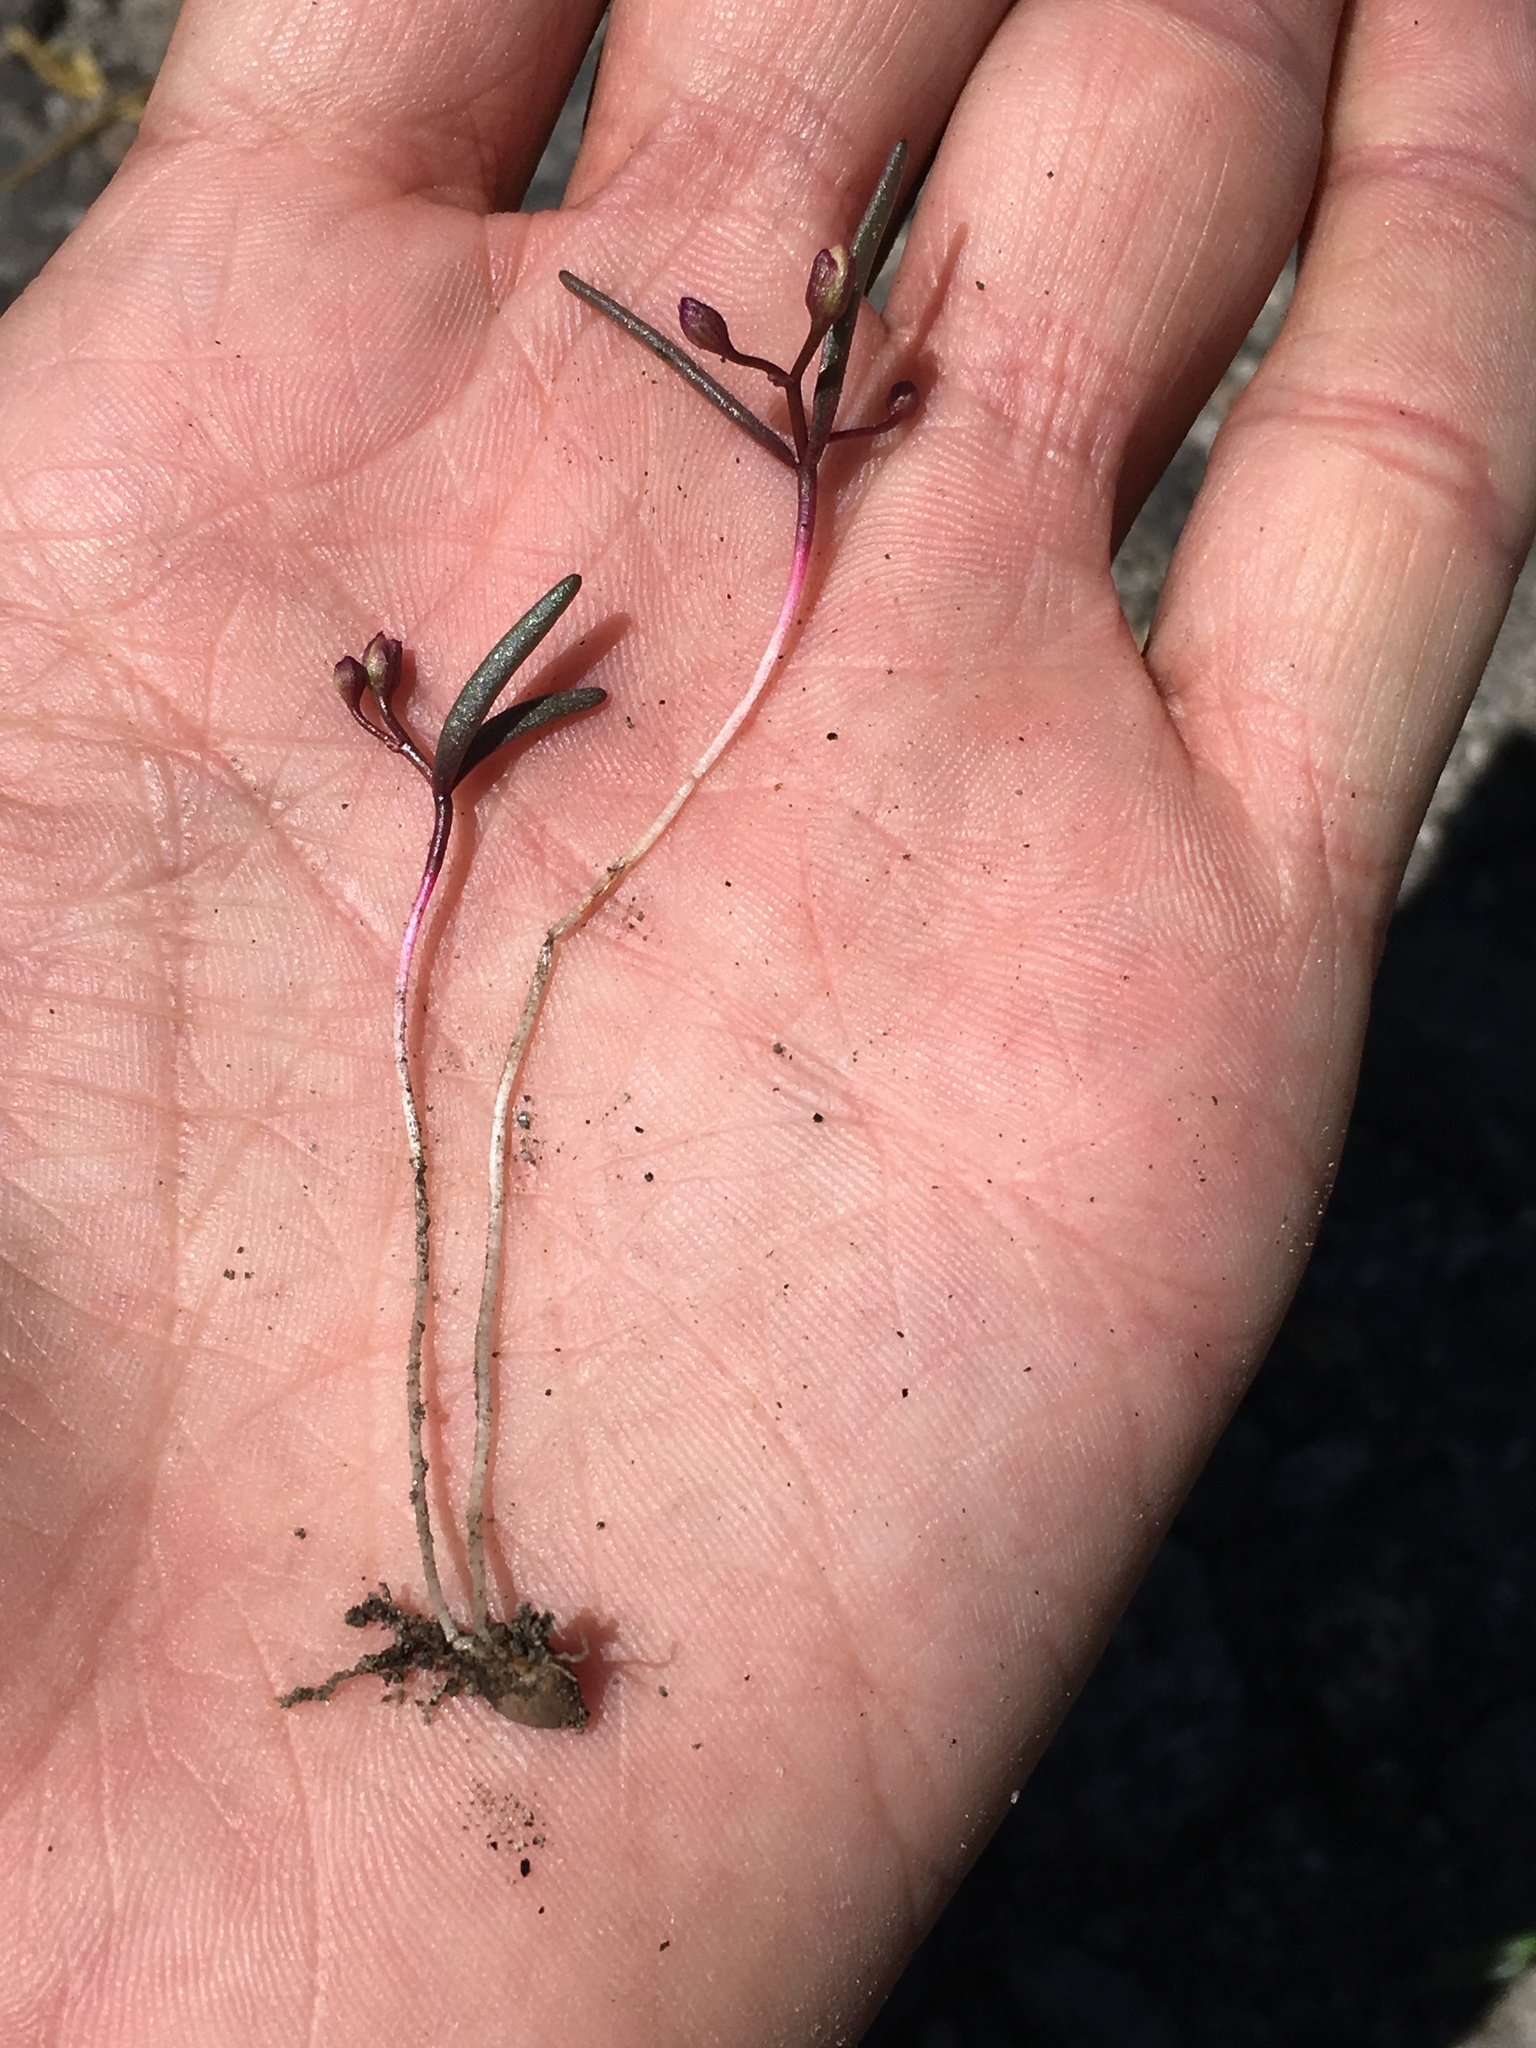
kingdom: Plantae
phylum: Tracheophyta
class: Magnoliopsida
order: Caryophyllales
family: Montiaceae
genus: Lewisia
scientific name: Lewisia triphylla
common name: Three-leaved bitterroot
